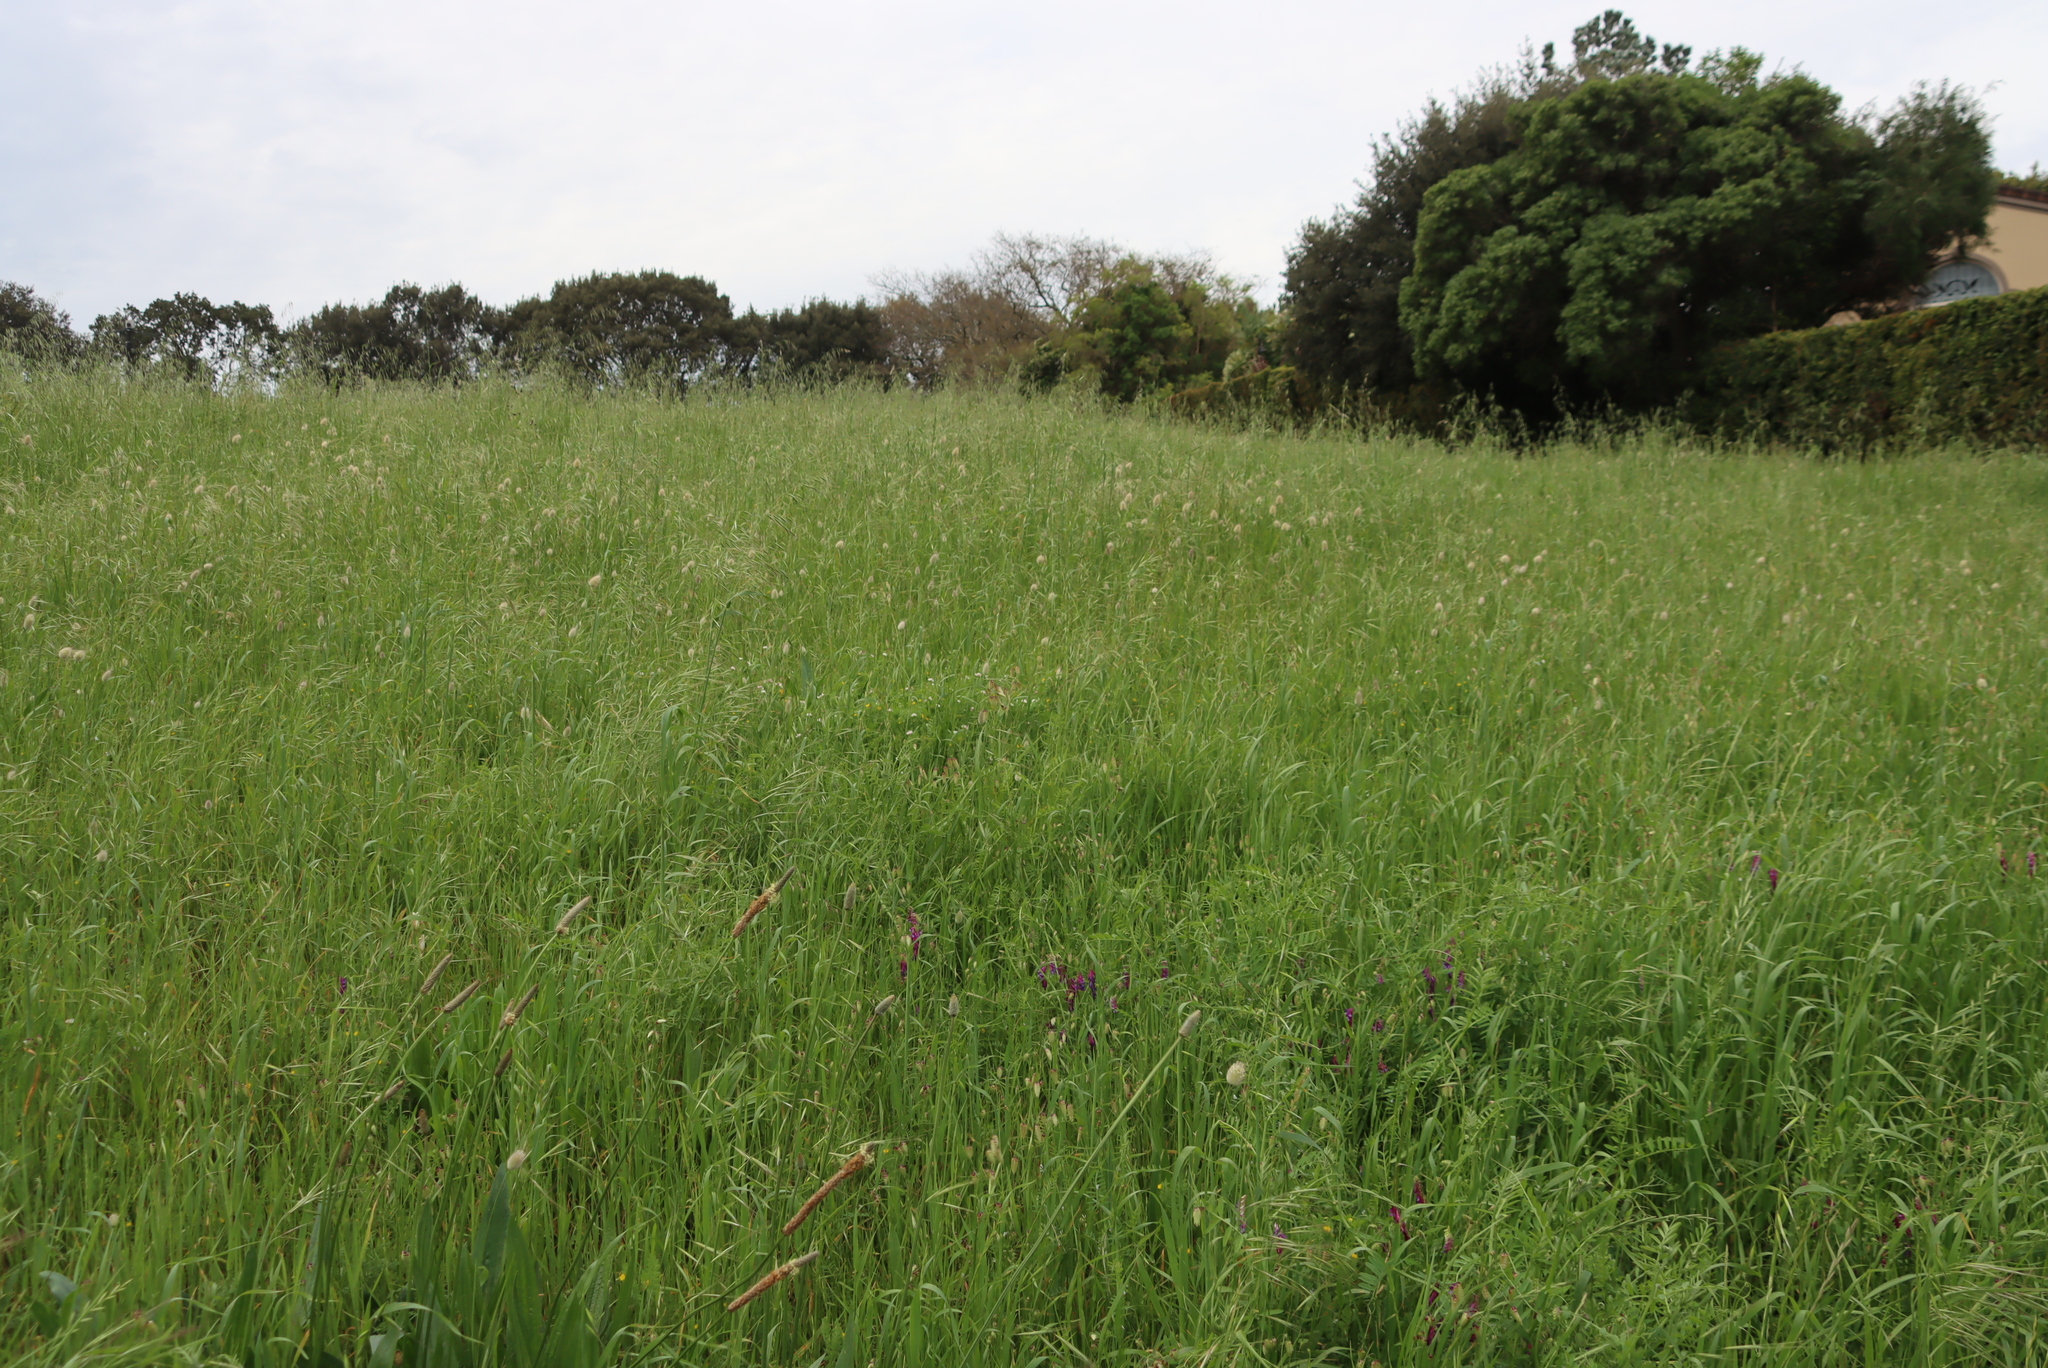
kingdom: Plantae
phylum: Tracheophyta
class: Liliopsida
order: Poales
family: Poaceae
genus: Lagurus
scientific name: Lagurus ovatus
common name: Hare's-tail
